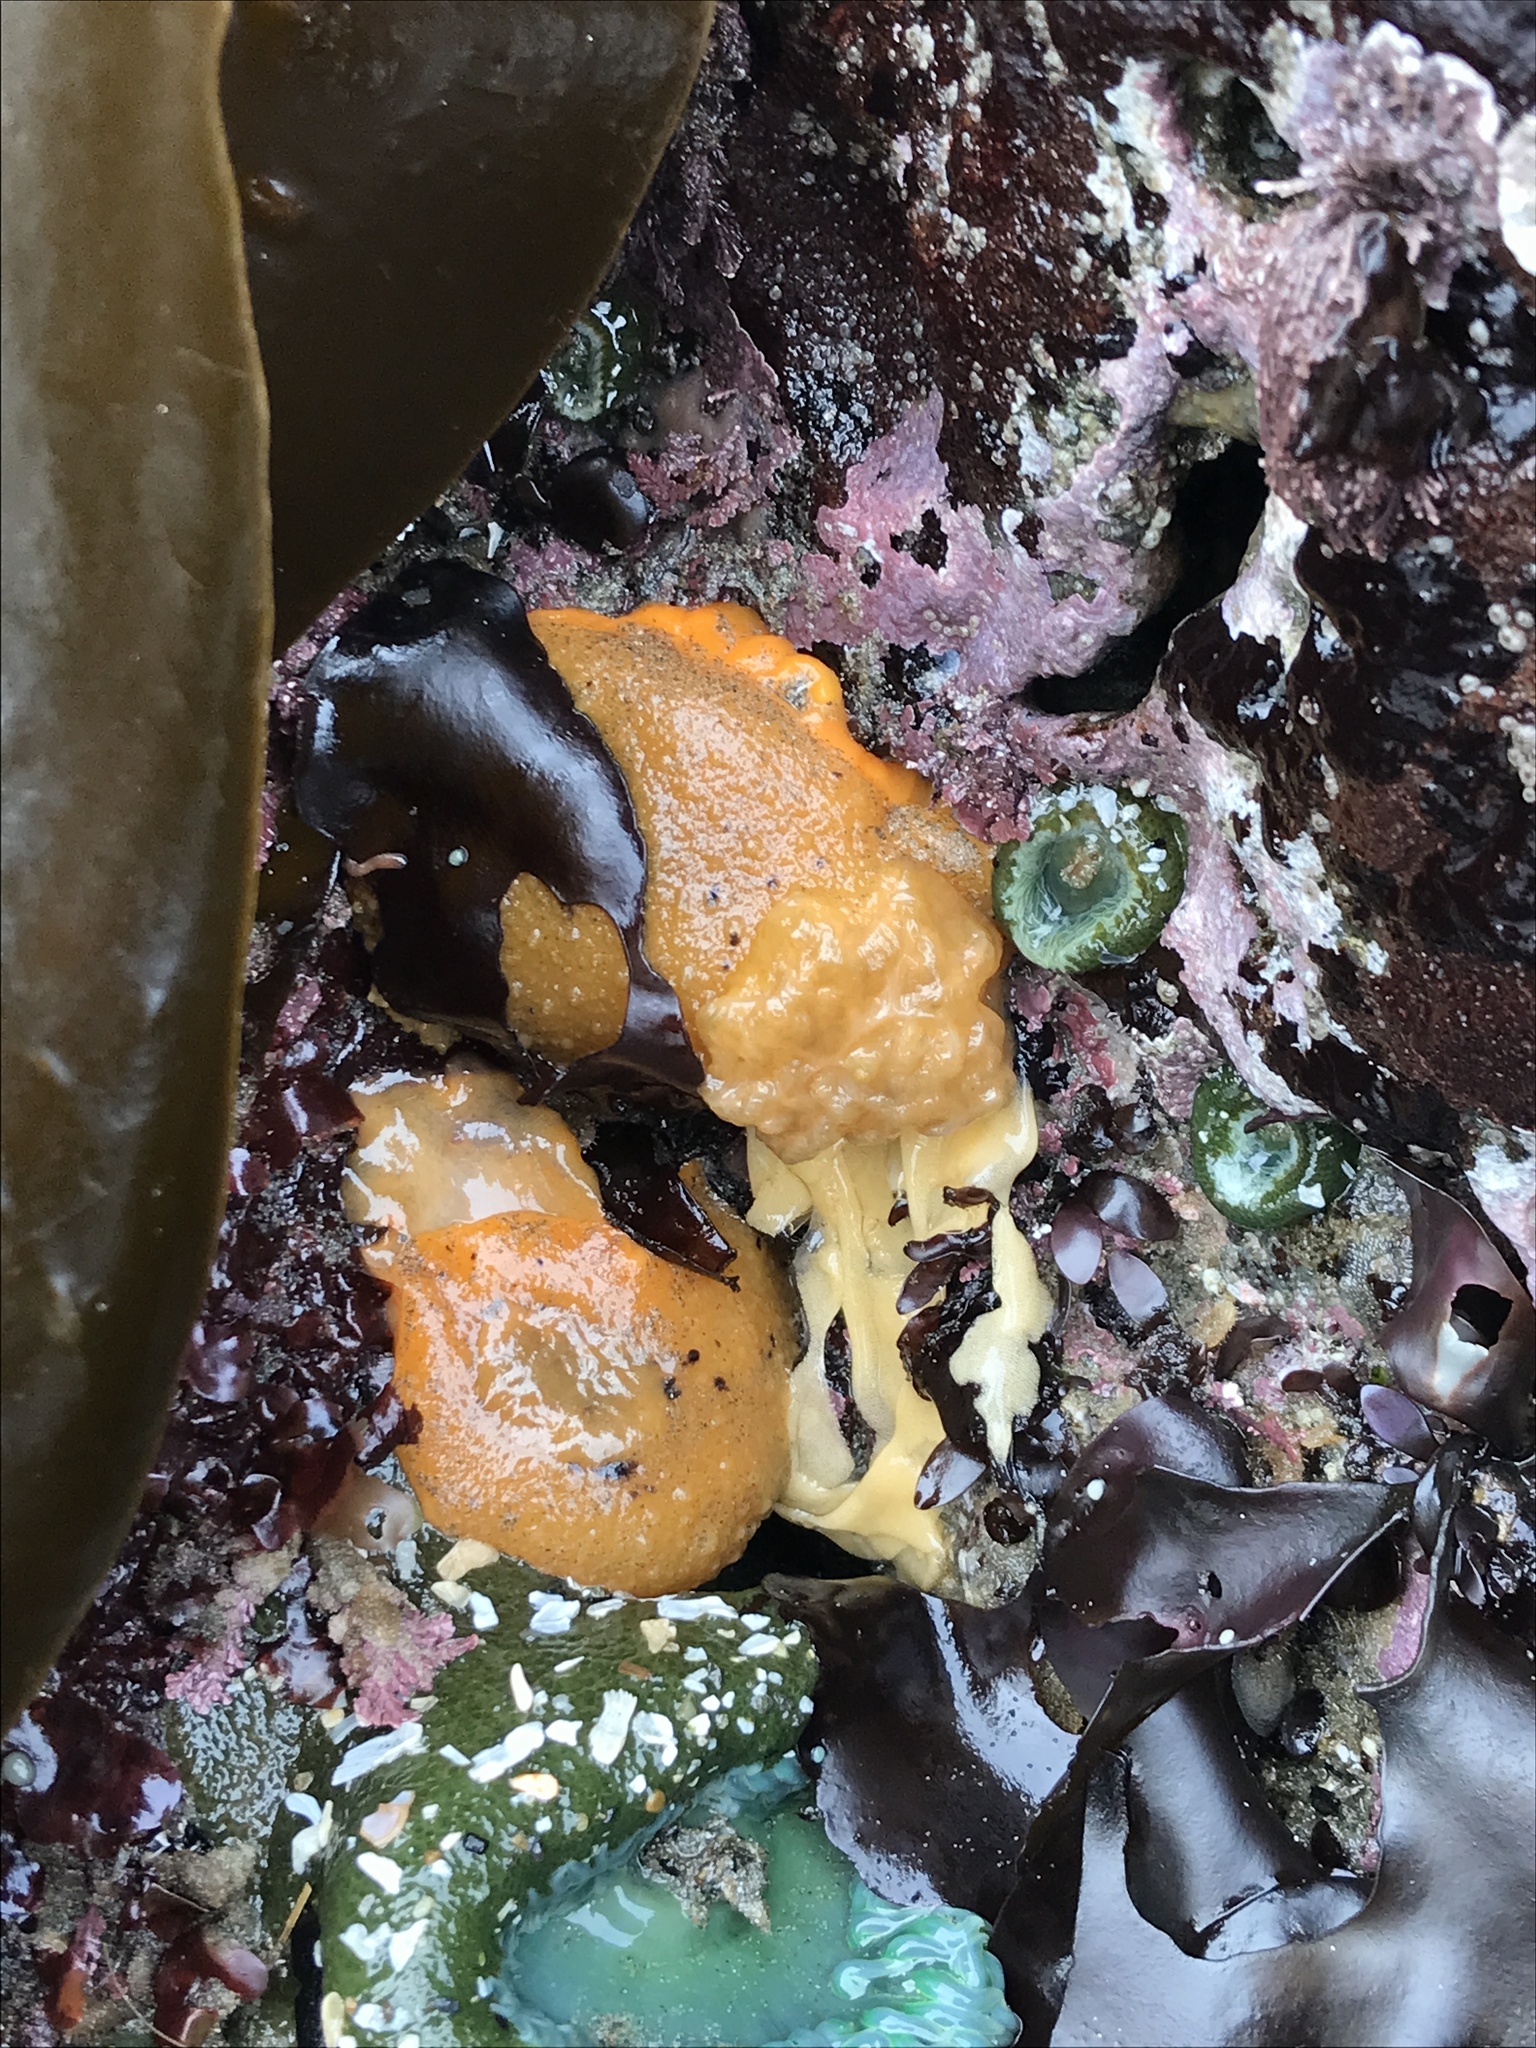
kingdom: Animalia
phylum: Mollusca
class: Gastropoda
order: Nudibranchia
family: Dorididae
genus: Doris
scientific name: Doris montereyensis
